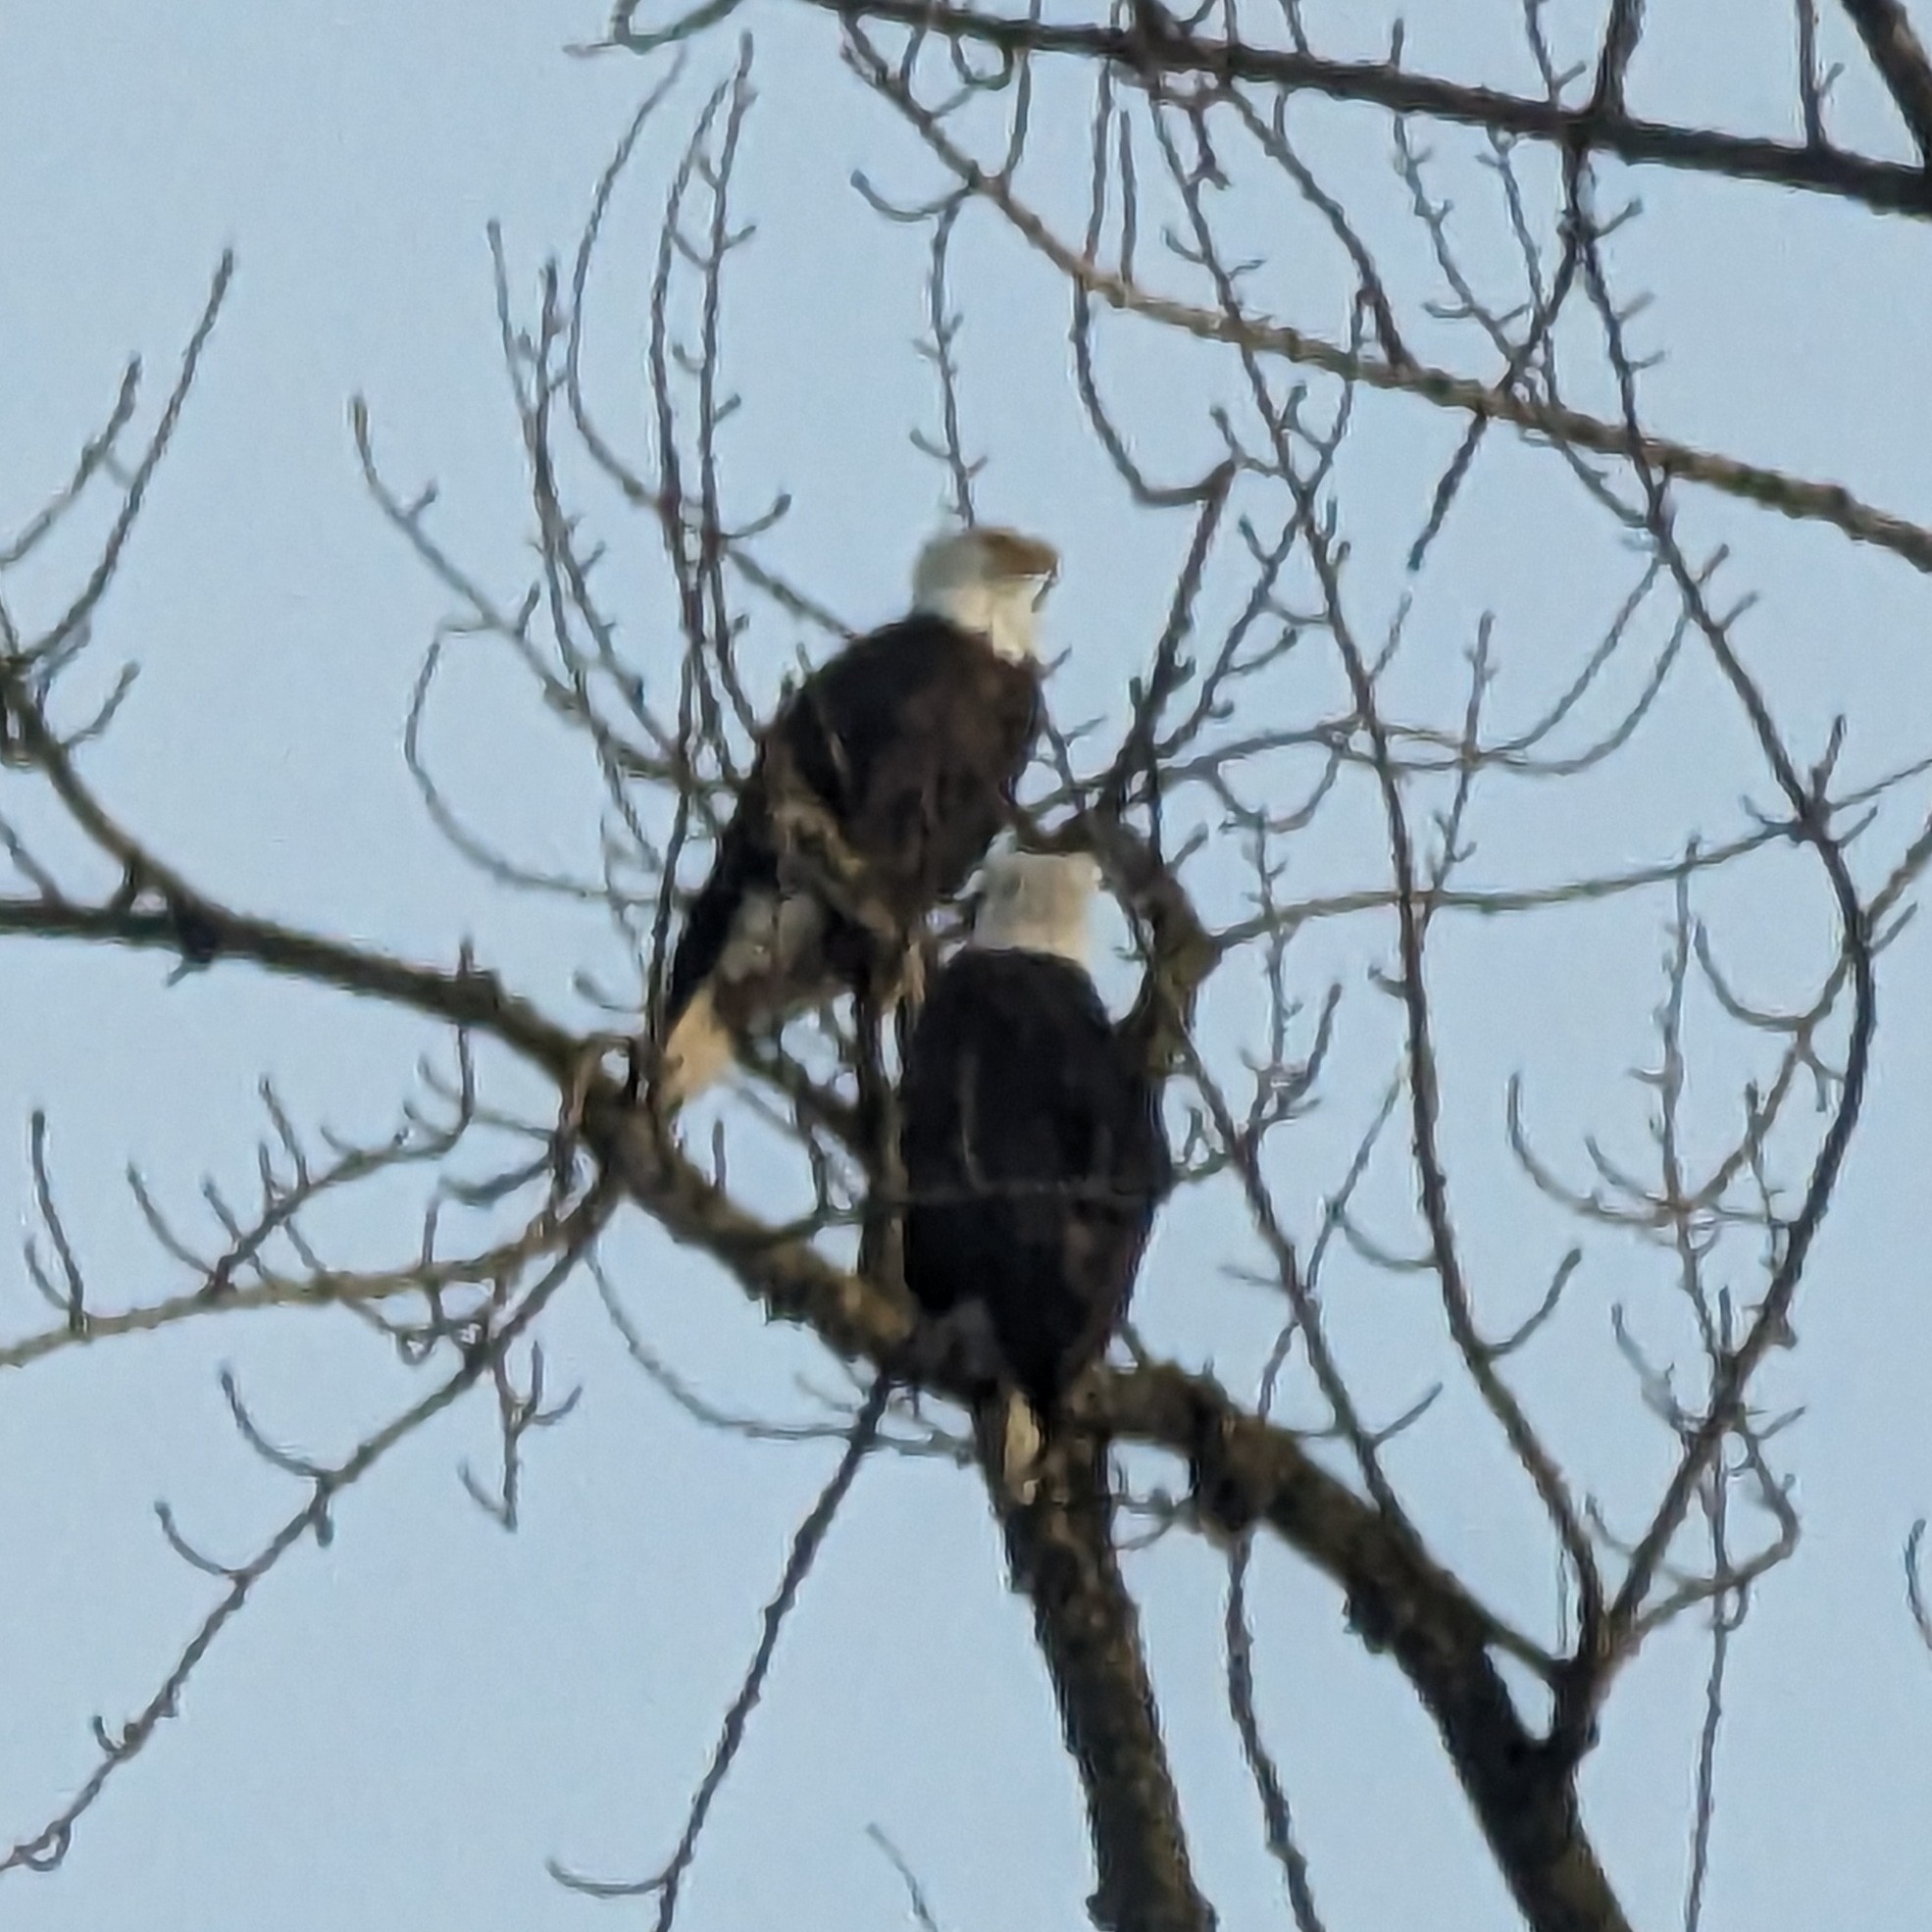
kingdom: Animalia
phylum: Chordata
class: Aves
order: Accipitriformes
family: Accipitridae
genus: Haliaeetus
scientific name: Haliaeetus leucocephalus
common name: Bald eagle
